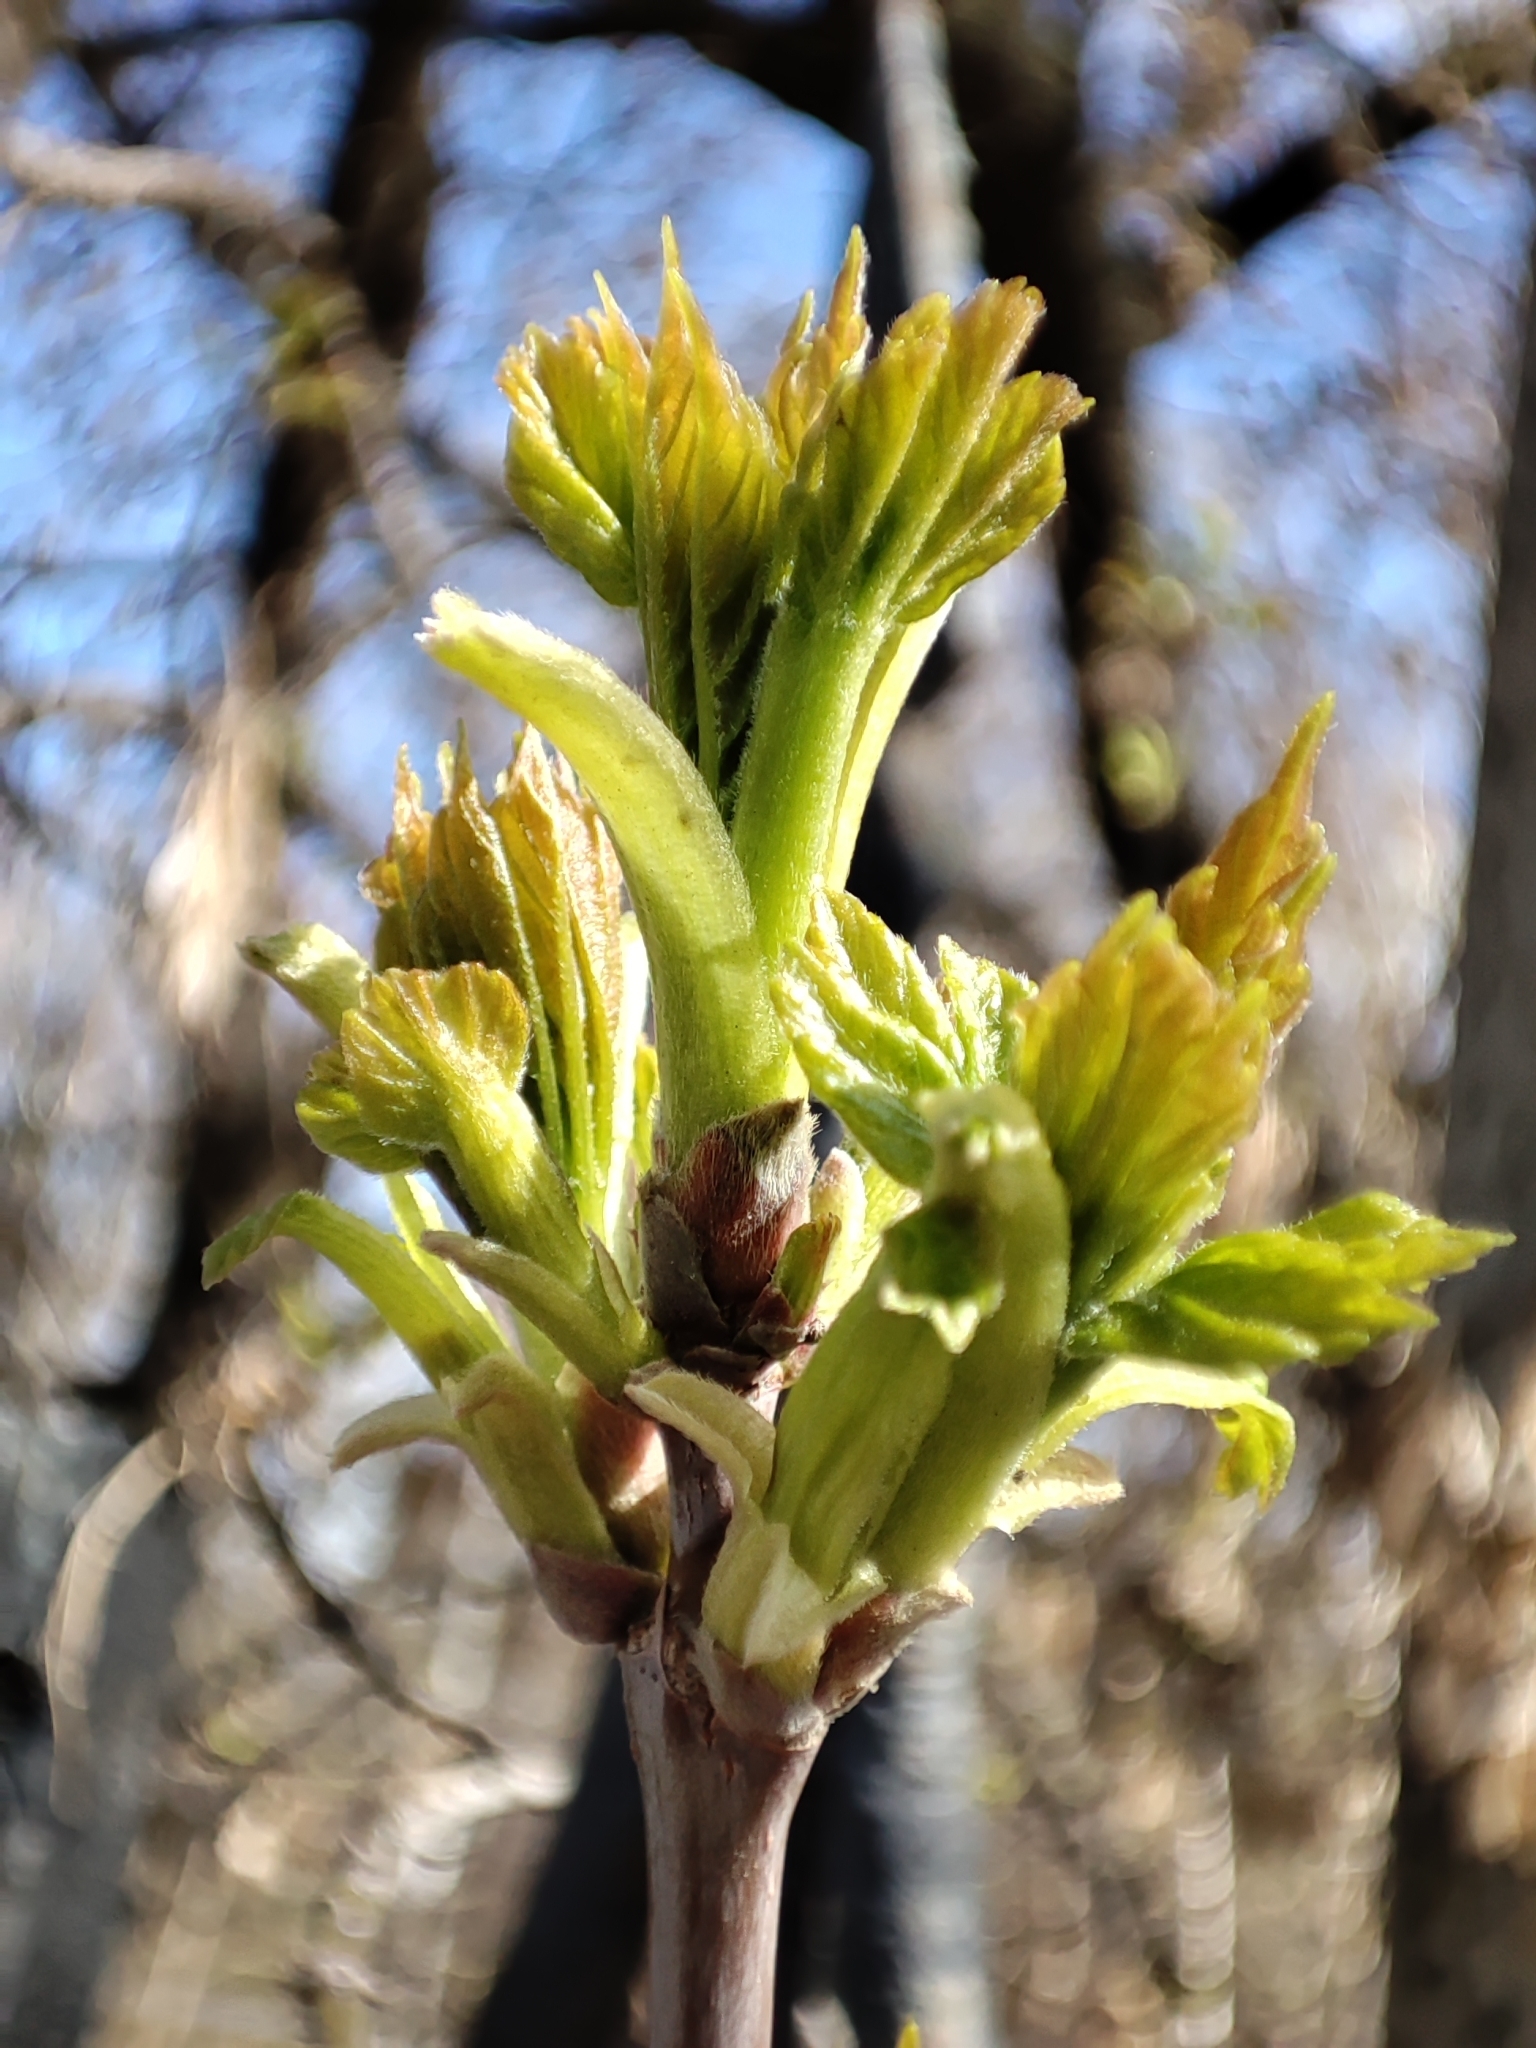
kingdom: Plantae
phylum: Tracheophyta
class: Magnoliopsida
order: Sapindales
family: Sapindaceae
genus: Acer
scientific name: Acer negundo
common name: Ashleaf maple
